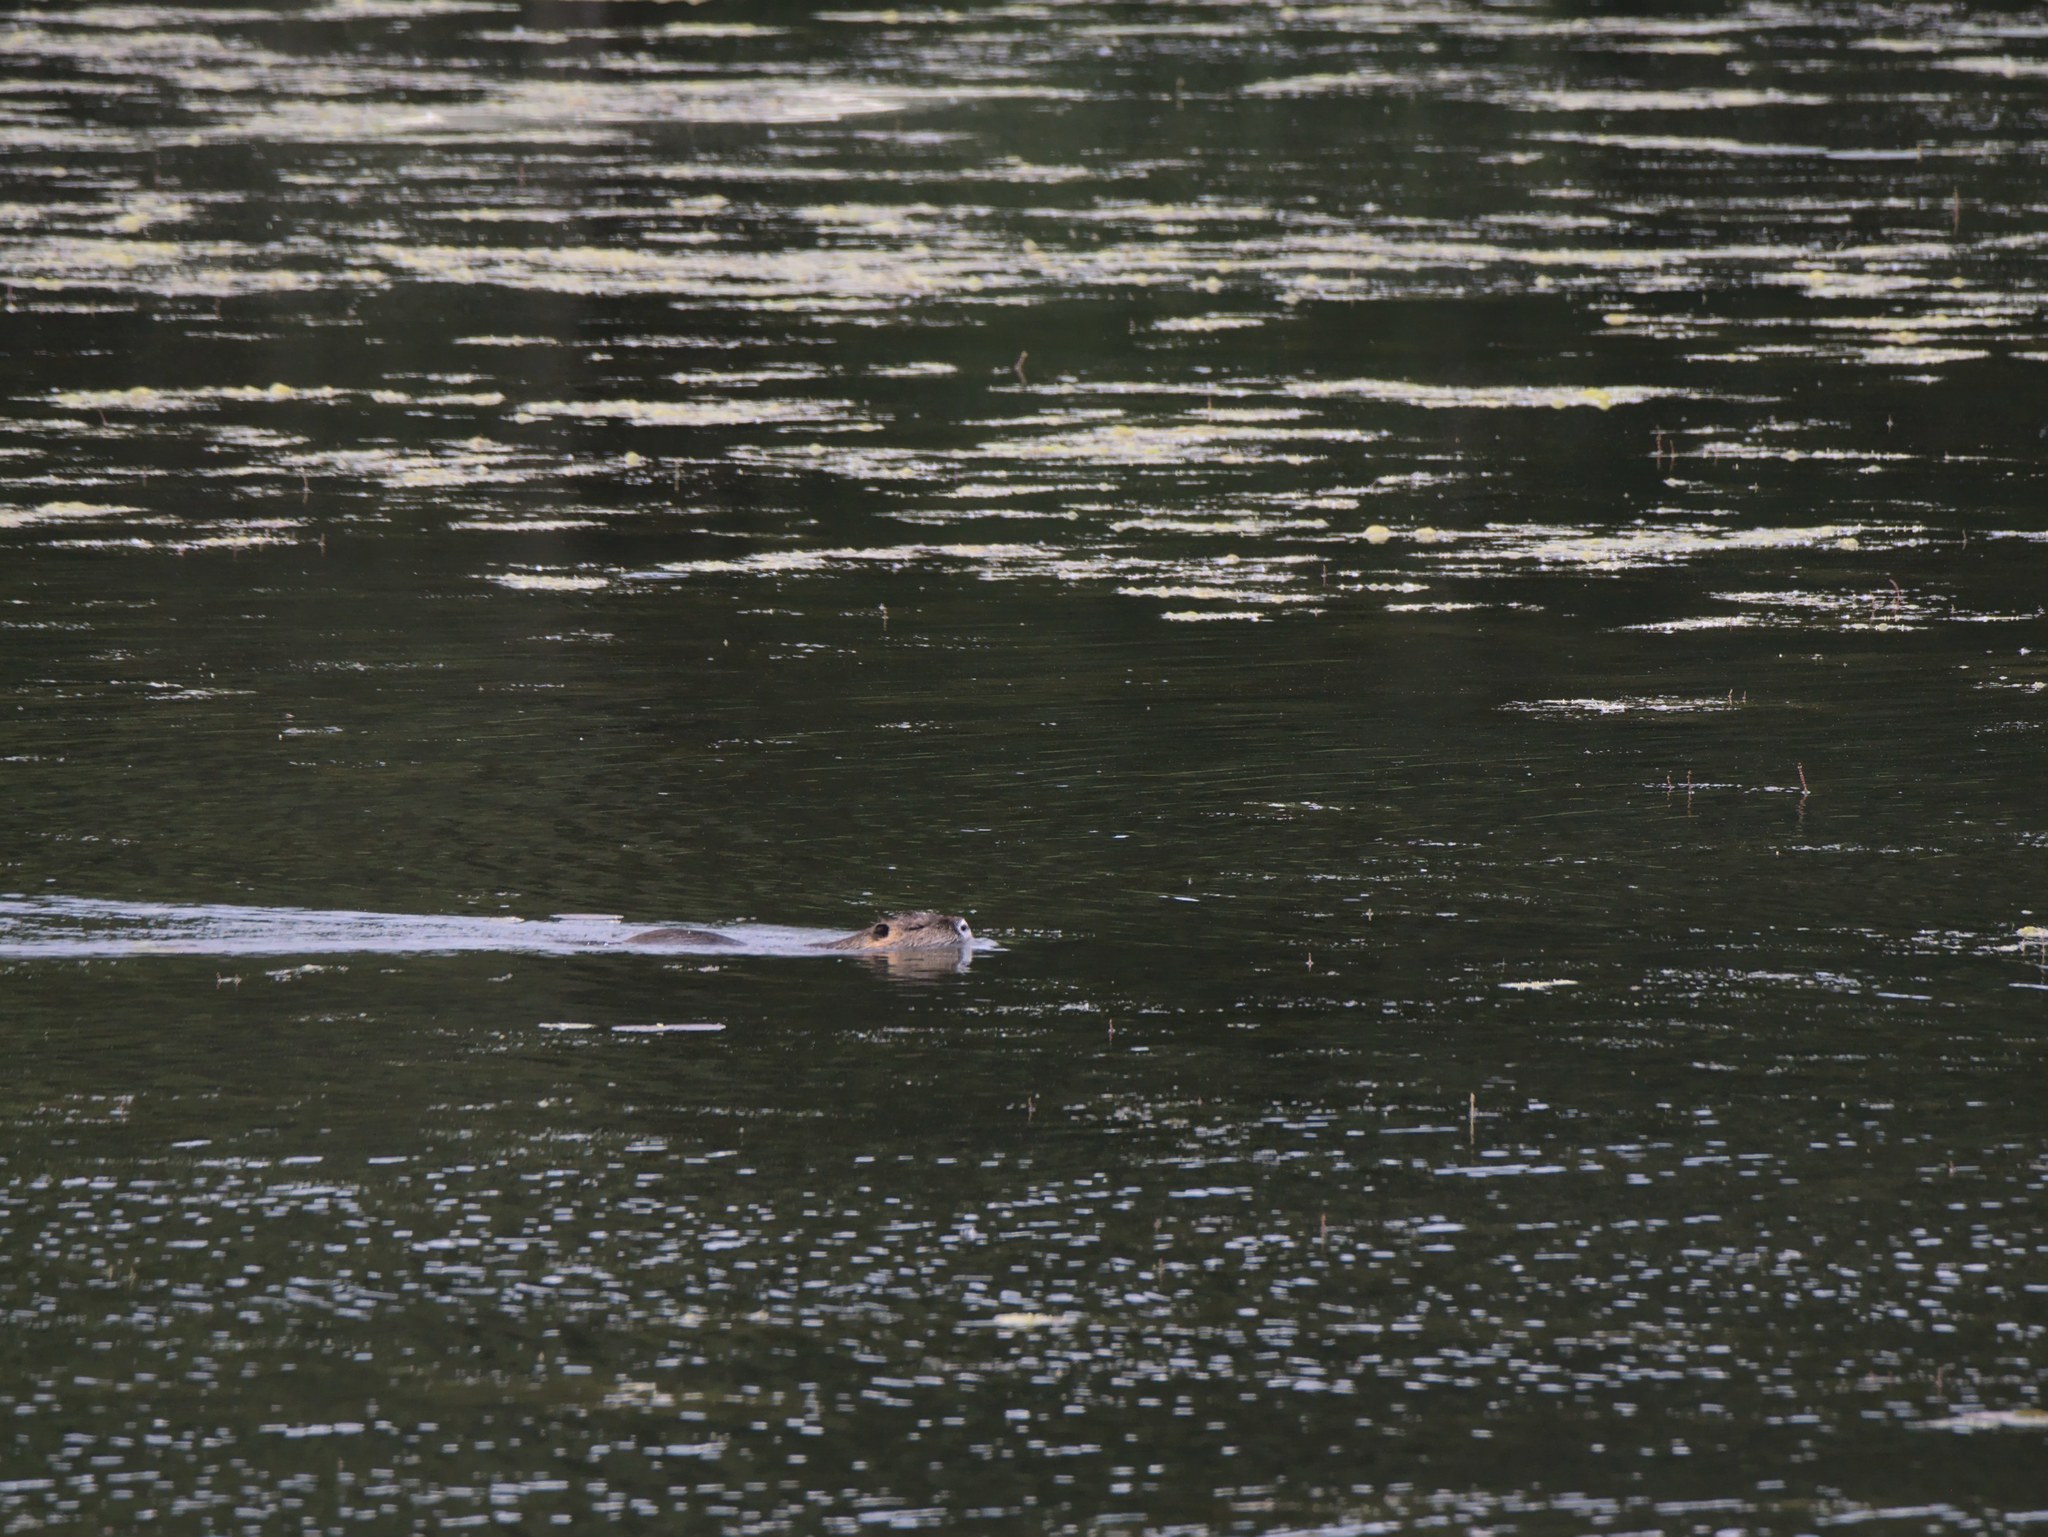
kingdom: Animalia
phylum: Chordata
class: Mammalia
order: Rodentia
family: Myocastoridae
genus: Myocastor
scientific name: Myocastor coypus
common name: Coypu
